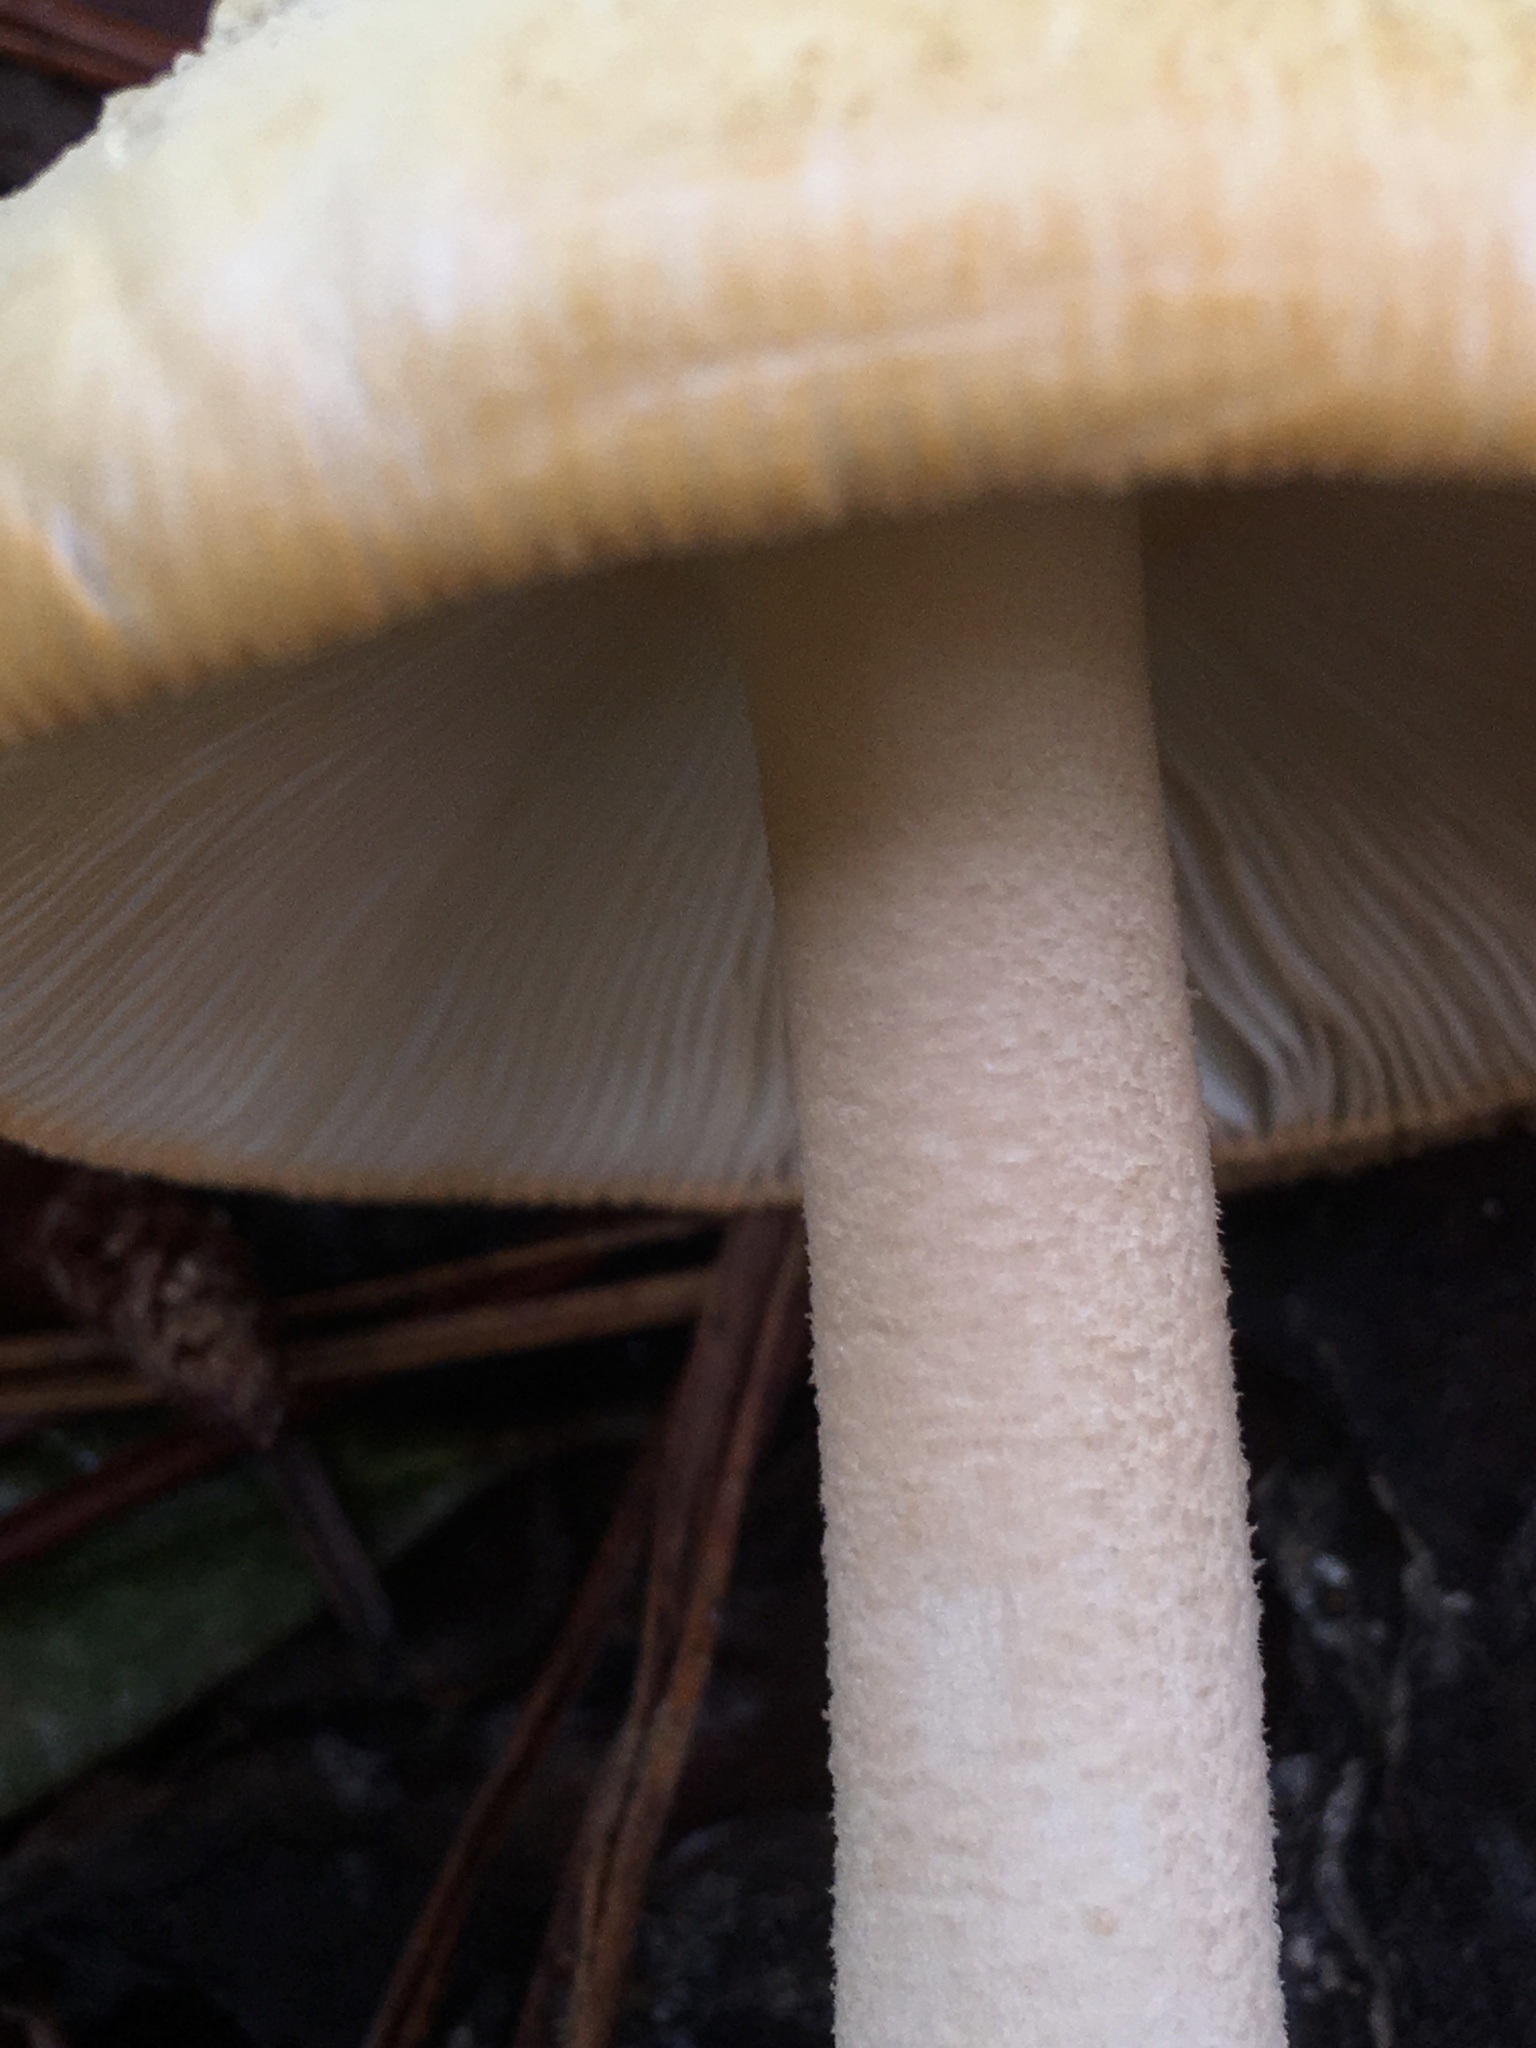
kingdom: Fungi
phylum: Basidiomycota
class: Agaricomycetes
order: Agaricales
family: Amanitaceae
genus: Amanita
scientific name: Amanita roseotincta
